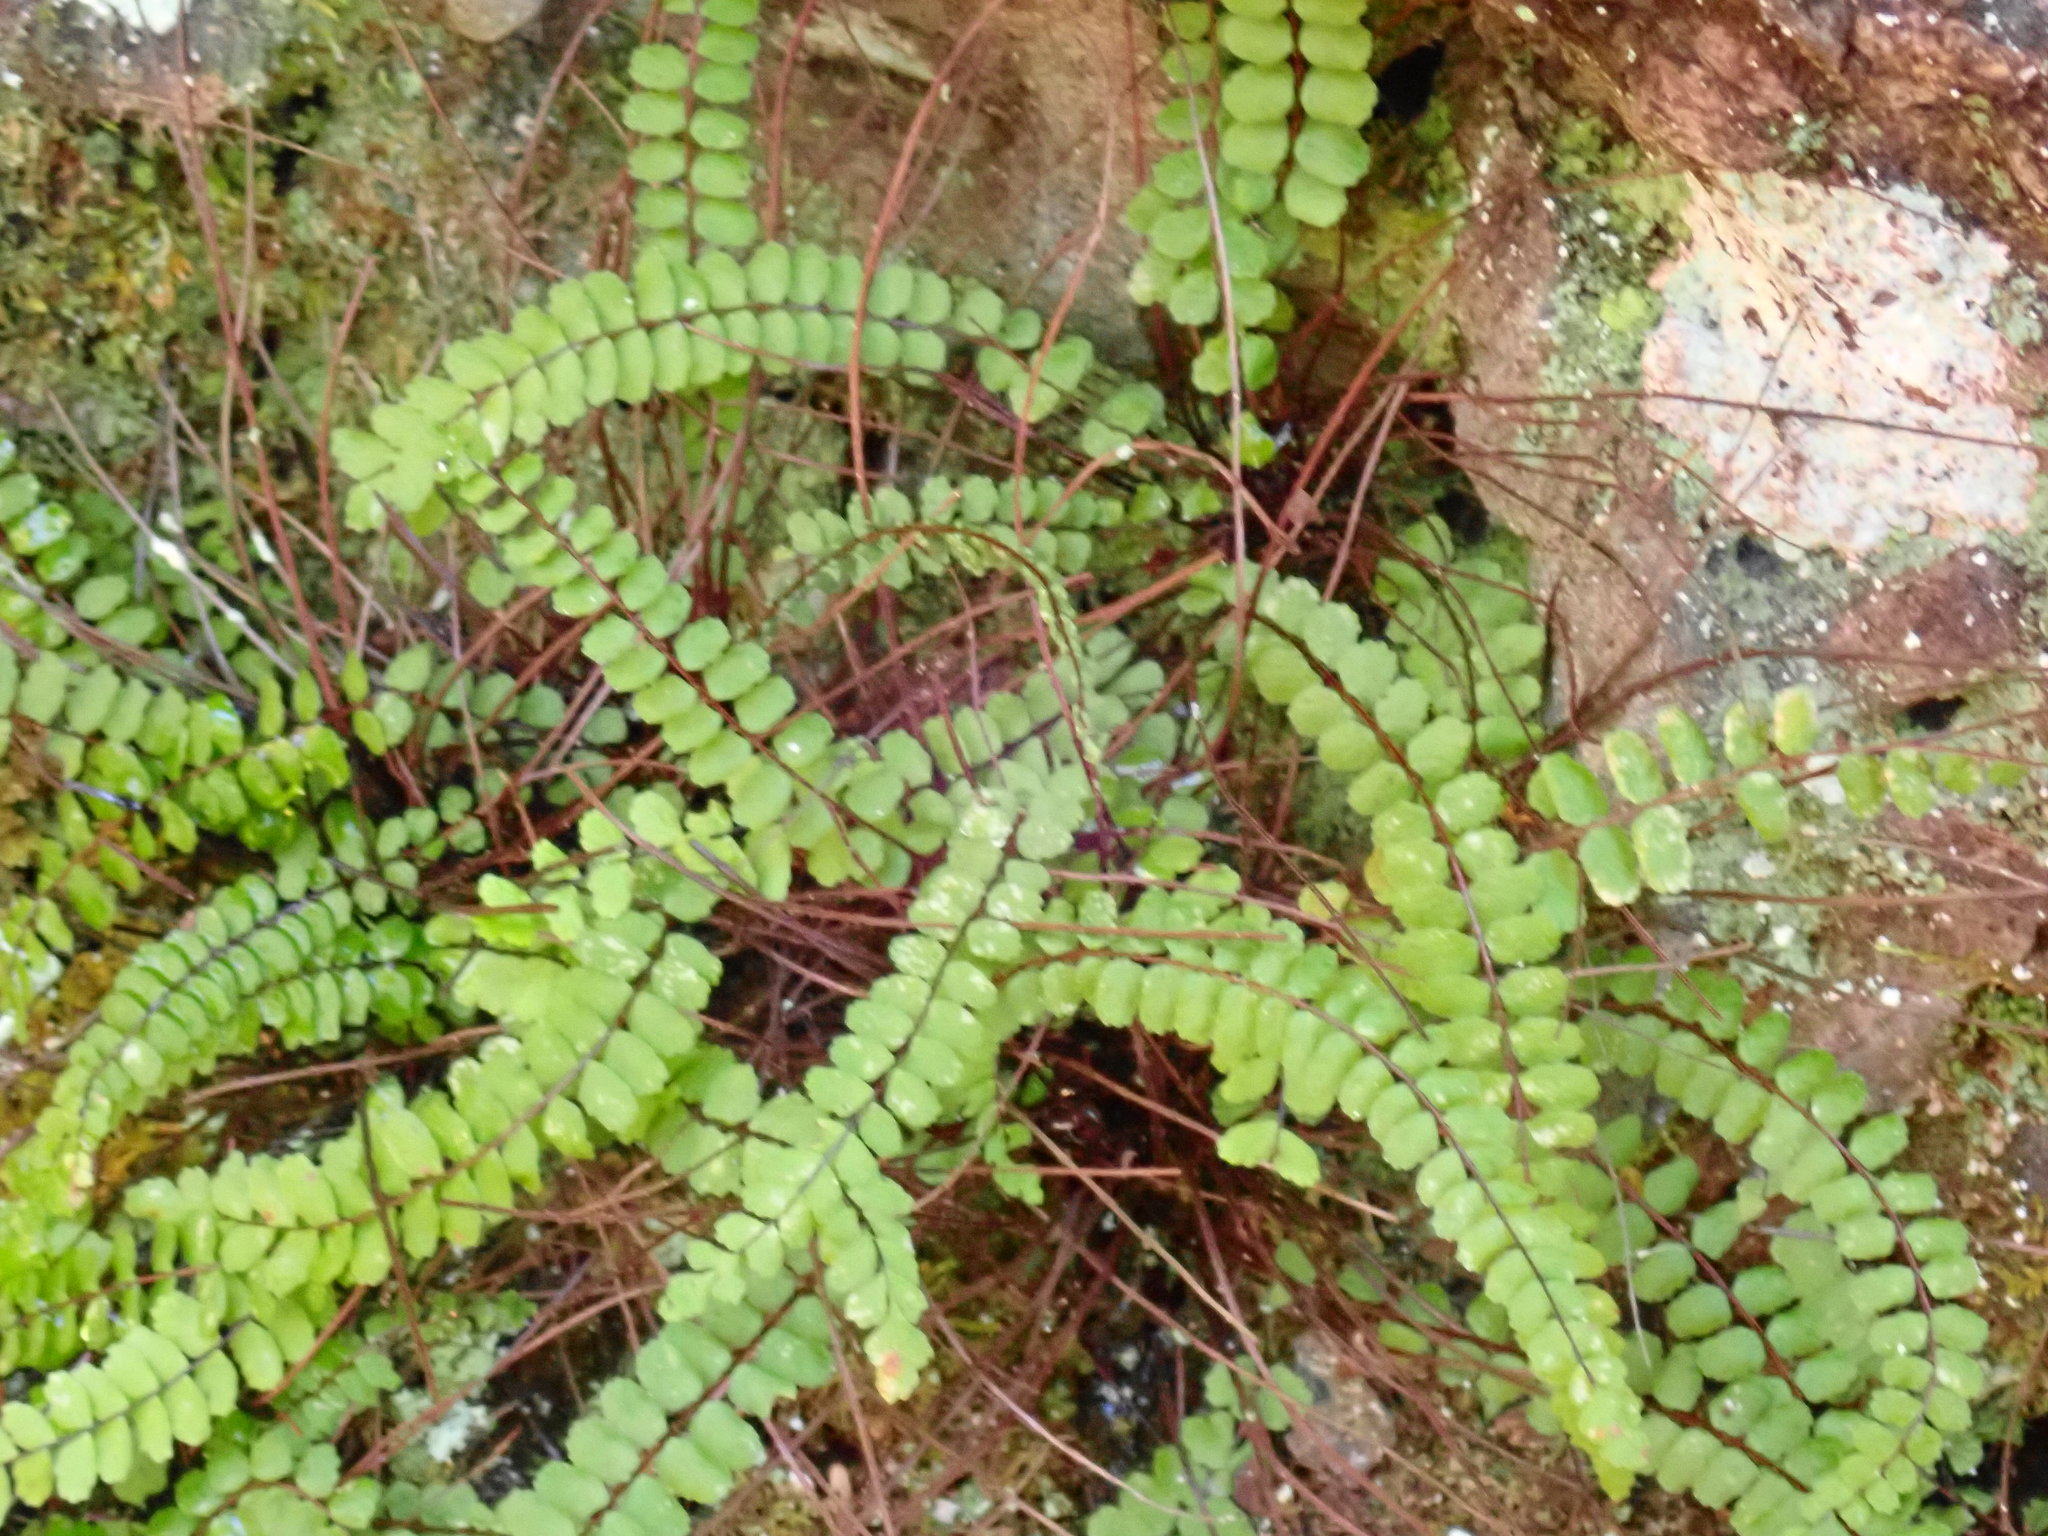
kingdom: Plantae
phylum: Tracheophyta
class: Polypodiopsida
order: Polypodiales
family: Aspleniaceae
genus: Asplenium
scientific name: Asplenium trichomanes
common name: Maidenhair spleenwort
